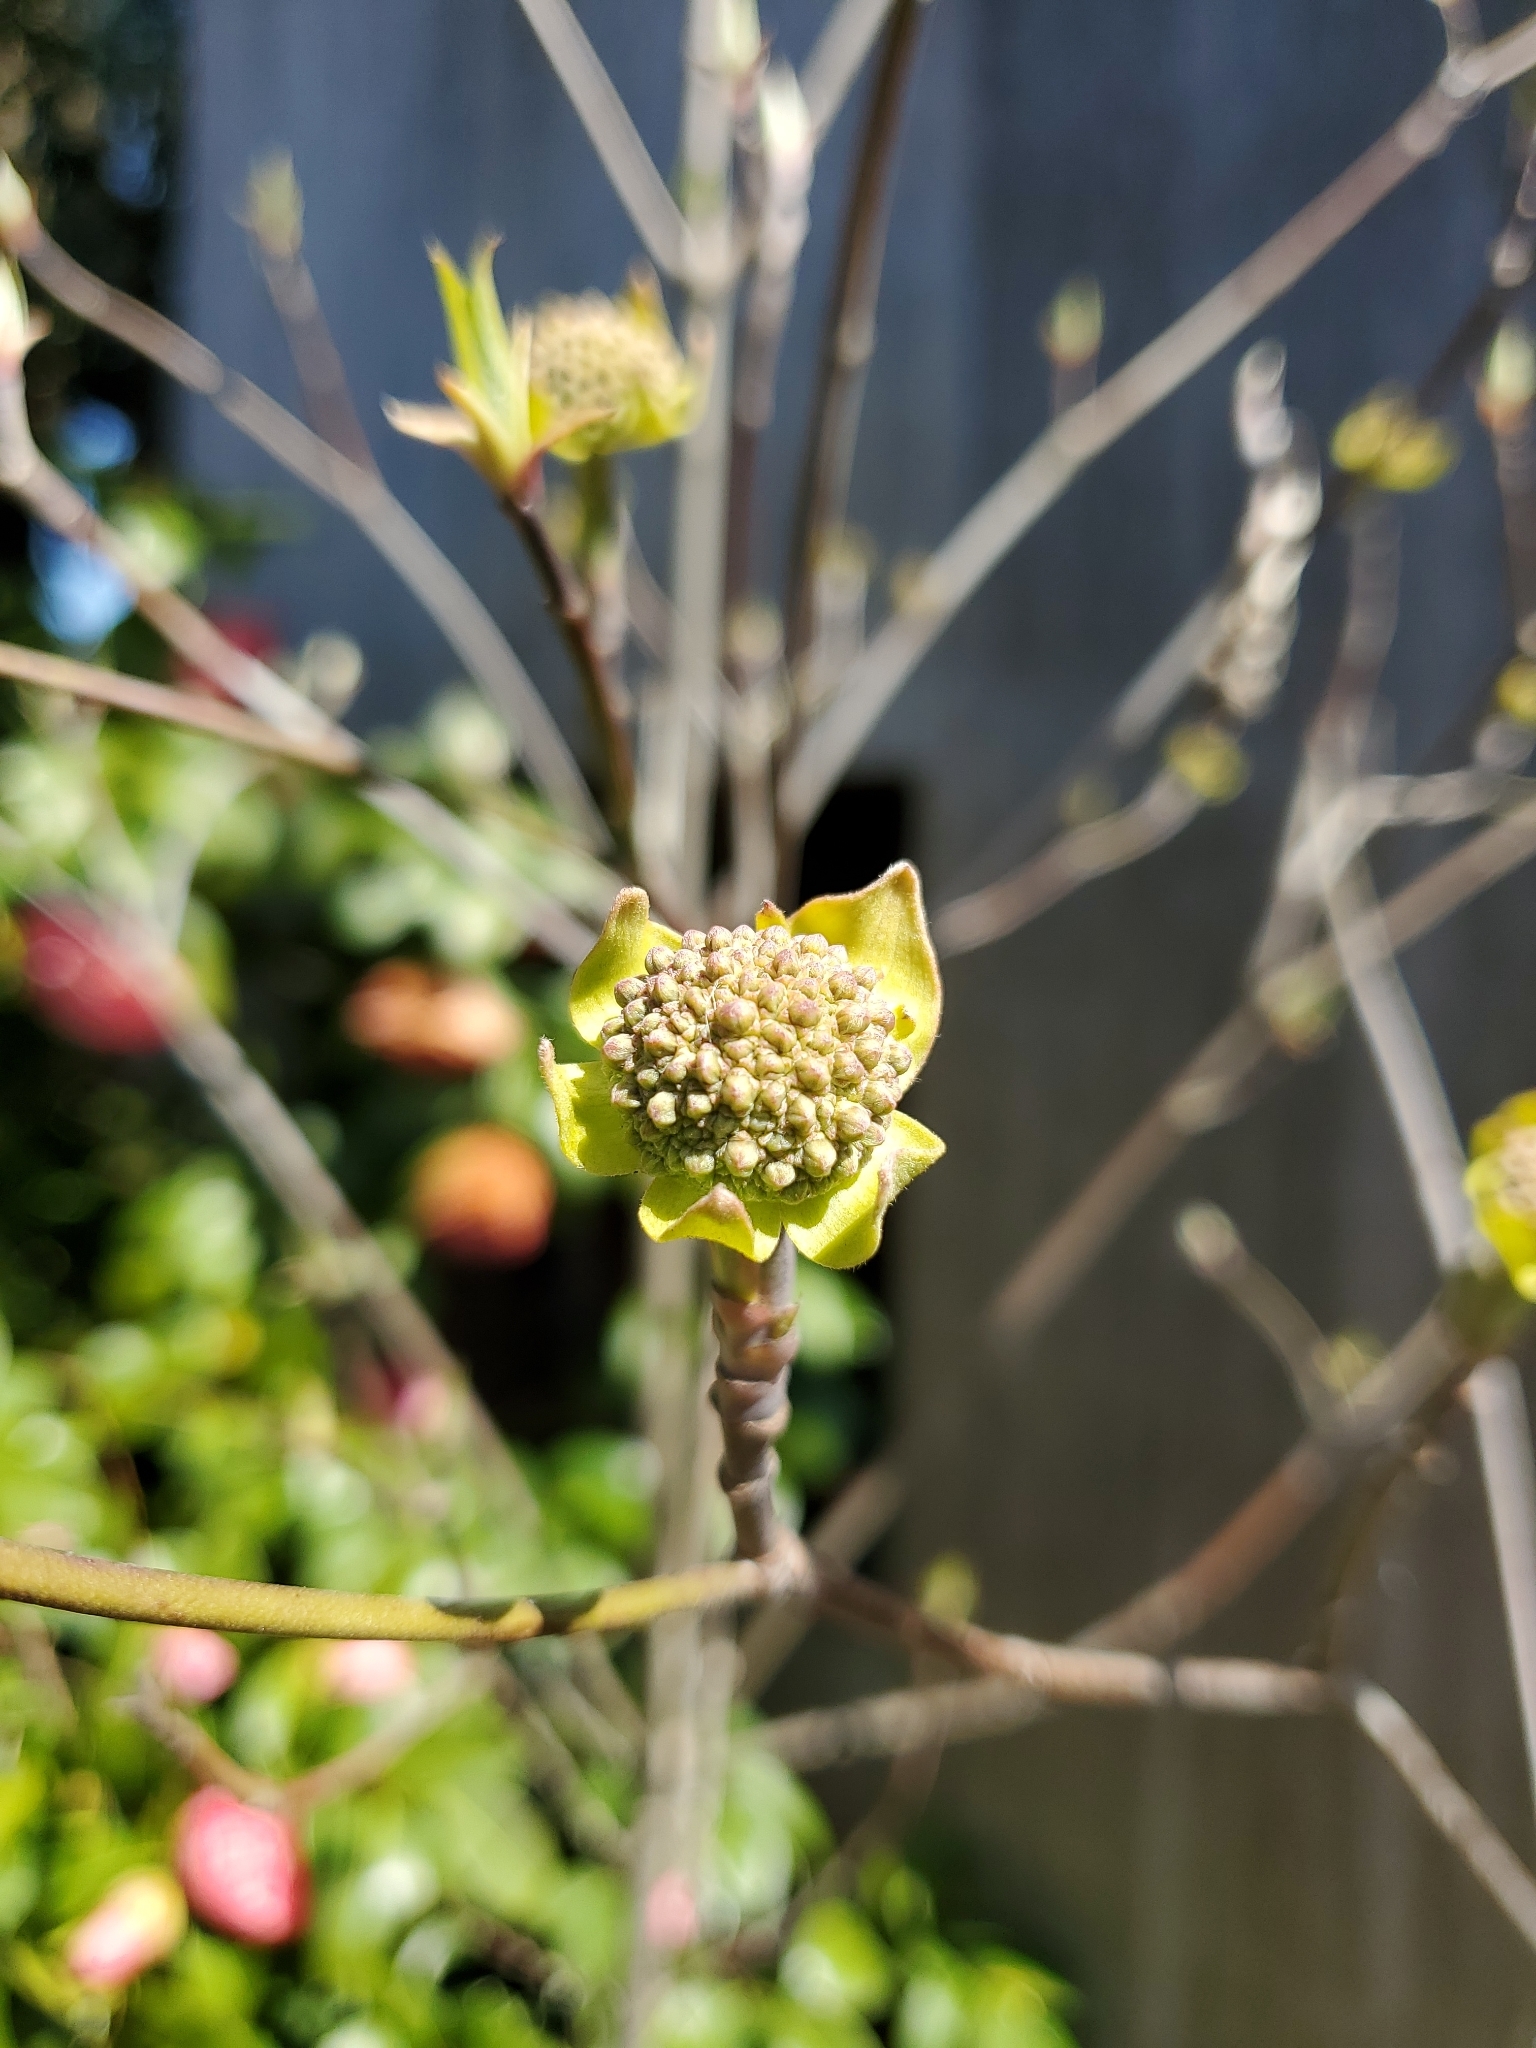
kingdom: Plantae
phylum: Tracheophyta
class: Magnoliopsida
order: Cornales
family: Cornaceae
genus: Cornus
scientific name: Cornus nuttallii
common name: Pacific dogwood
